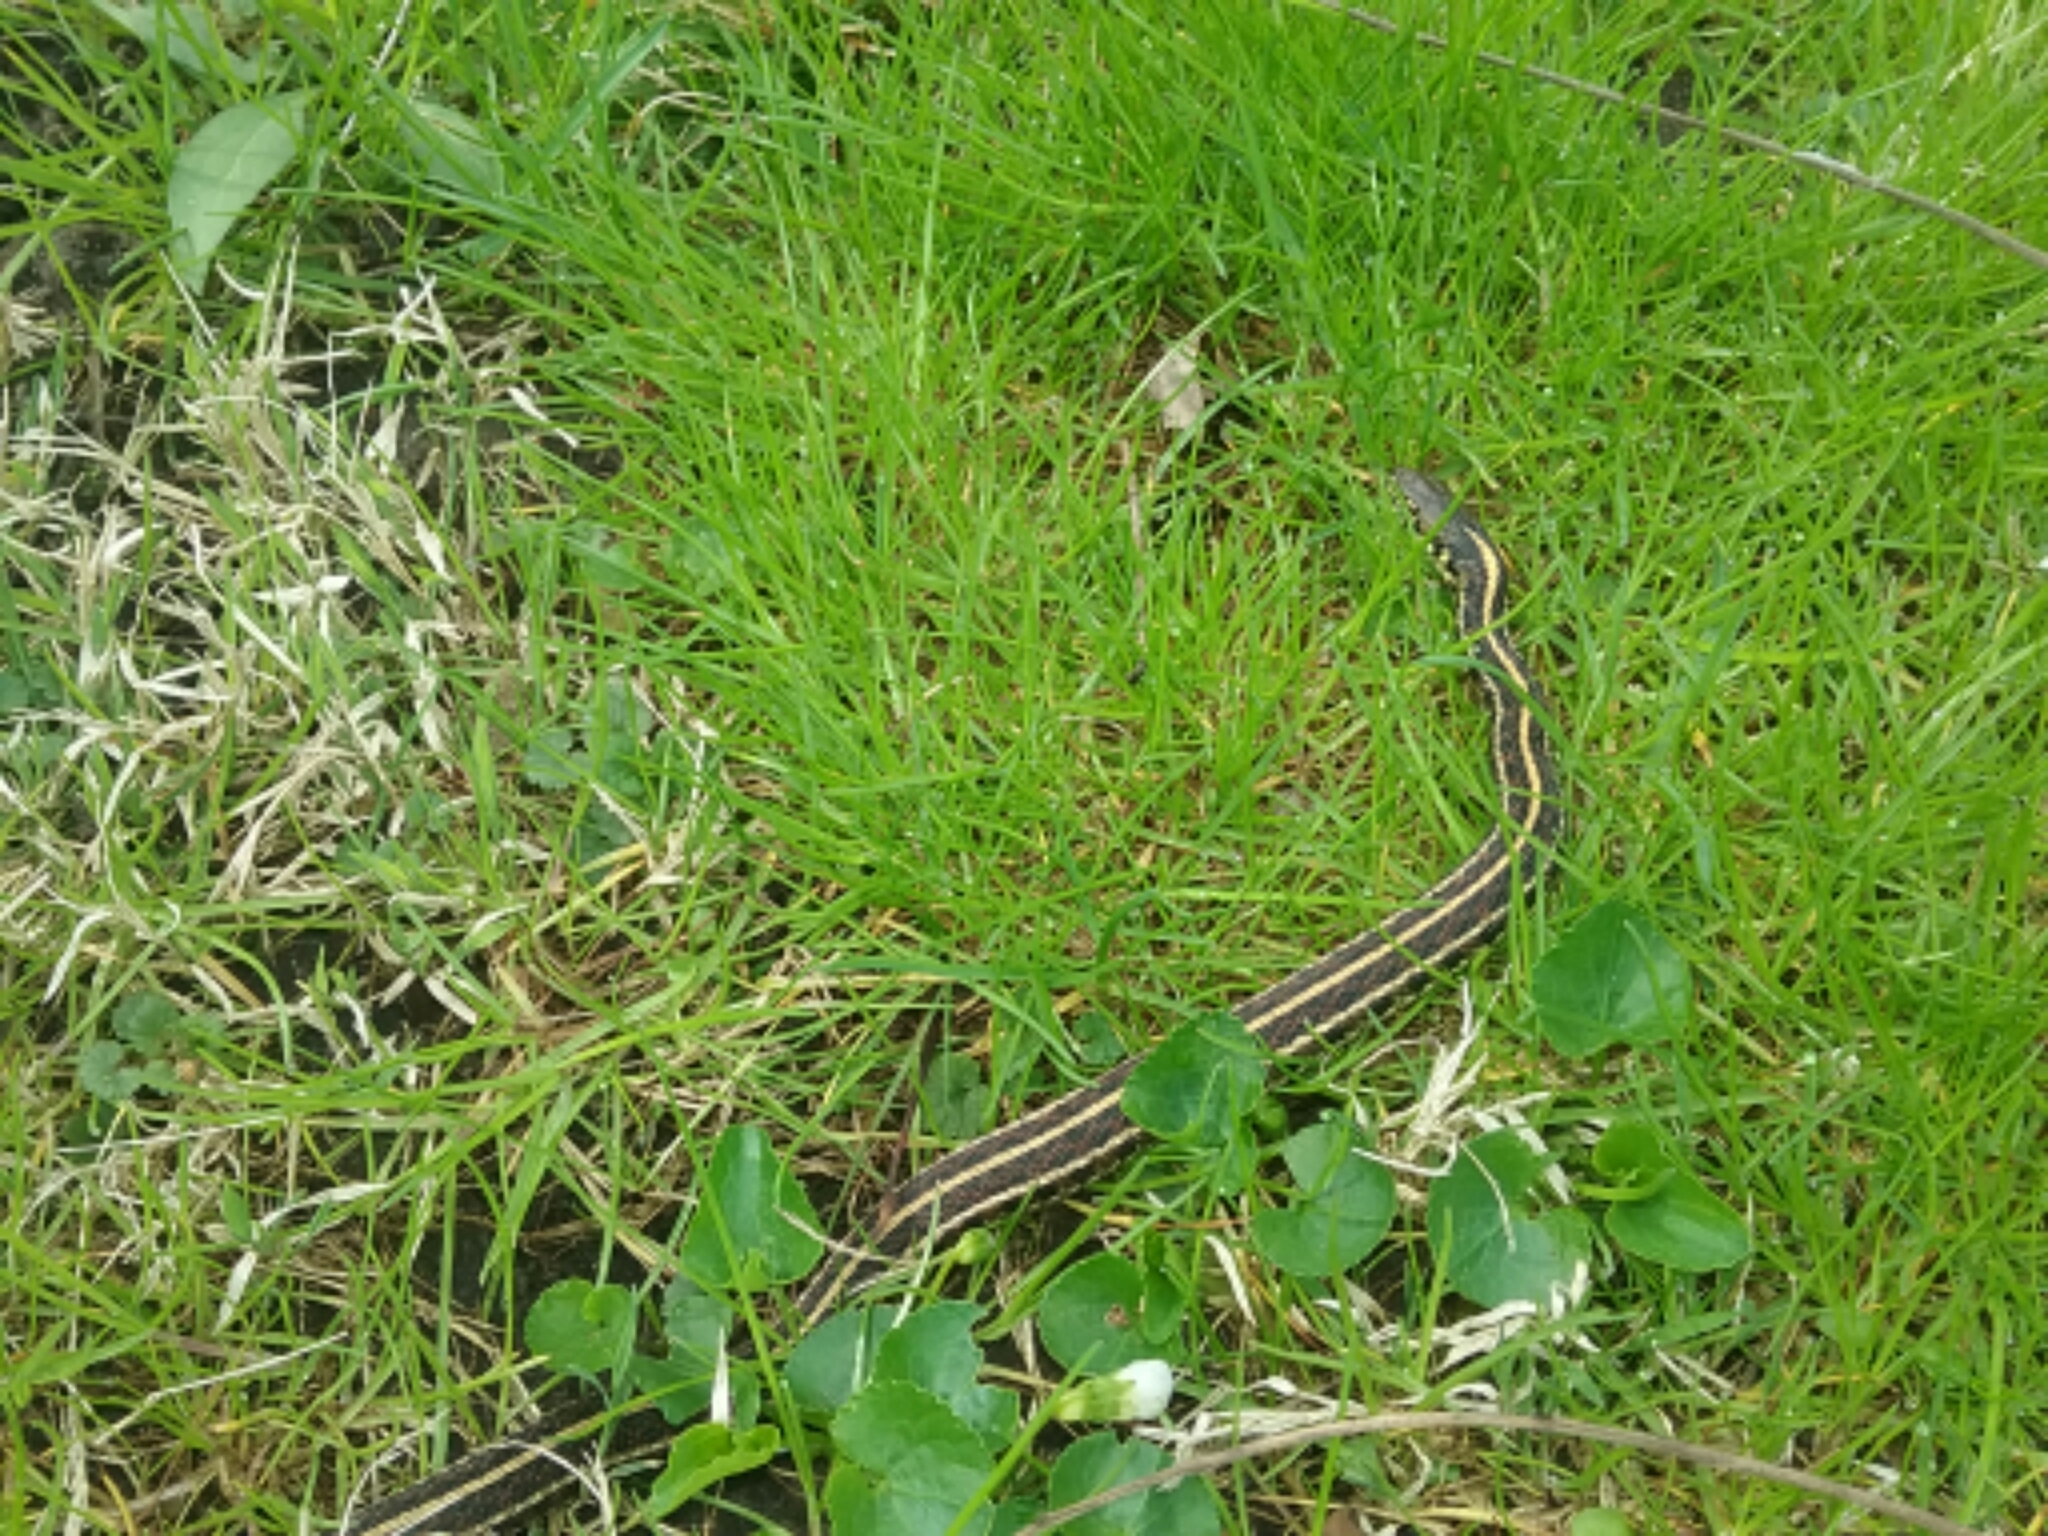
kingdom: Animalia
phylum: Chordata
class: Squamata
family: Colubridae
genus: Thamnophis
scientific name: Thamnophis radix
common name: Plains garter snake
